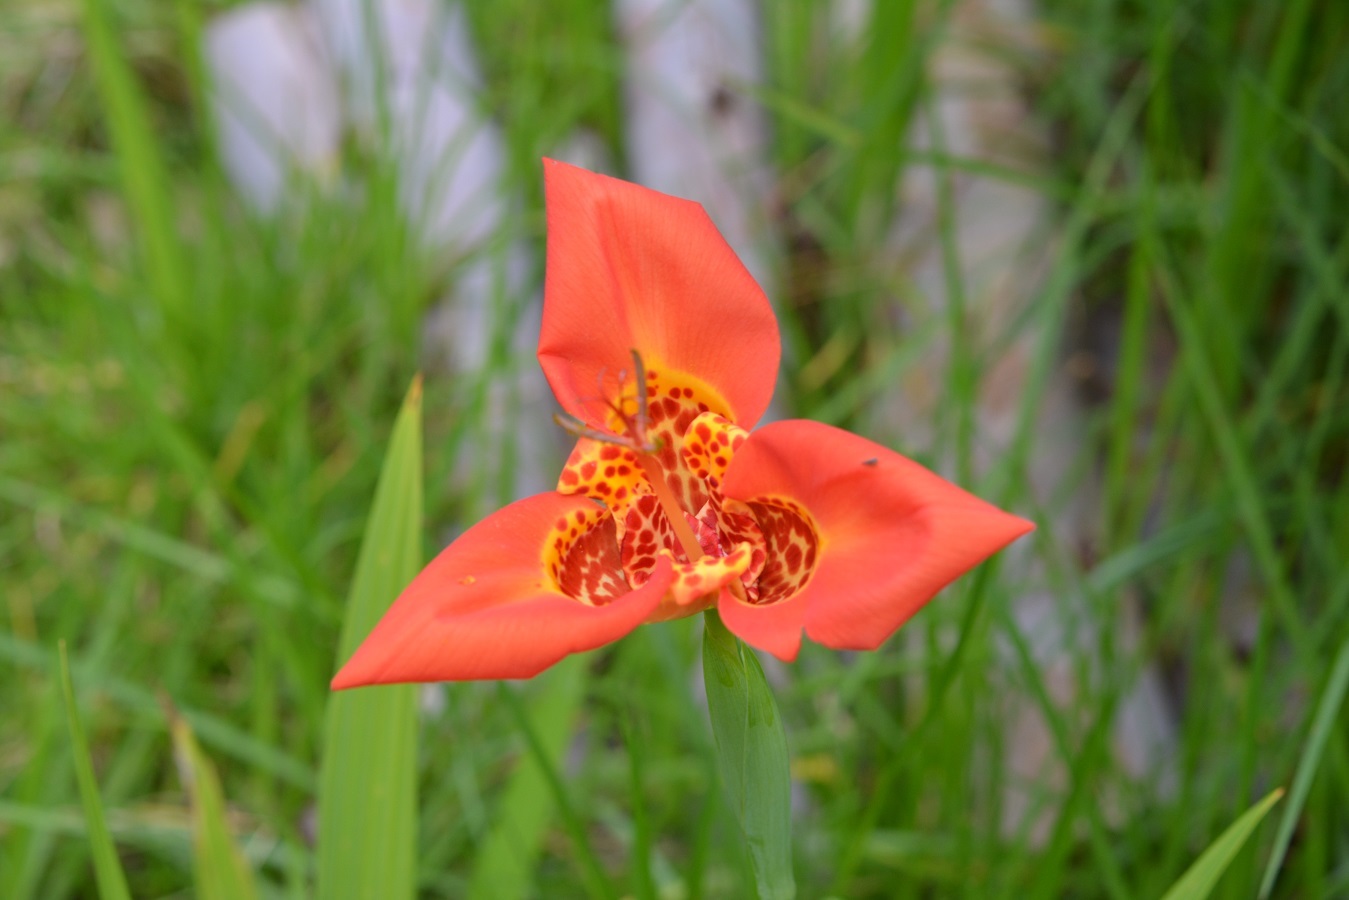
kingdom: Plantae
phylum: Tracheophyta
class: Liliopsida
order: Asparagales
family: Iridaceae
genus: Tigridia
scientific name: Tigridia pavonia
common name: Peacock-flower
